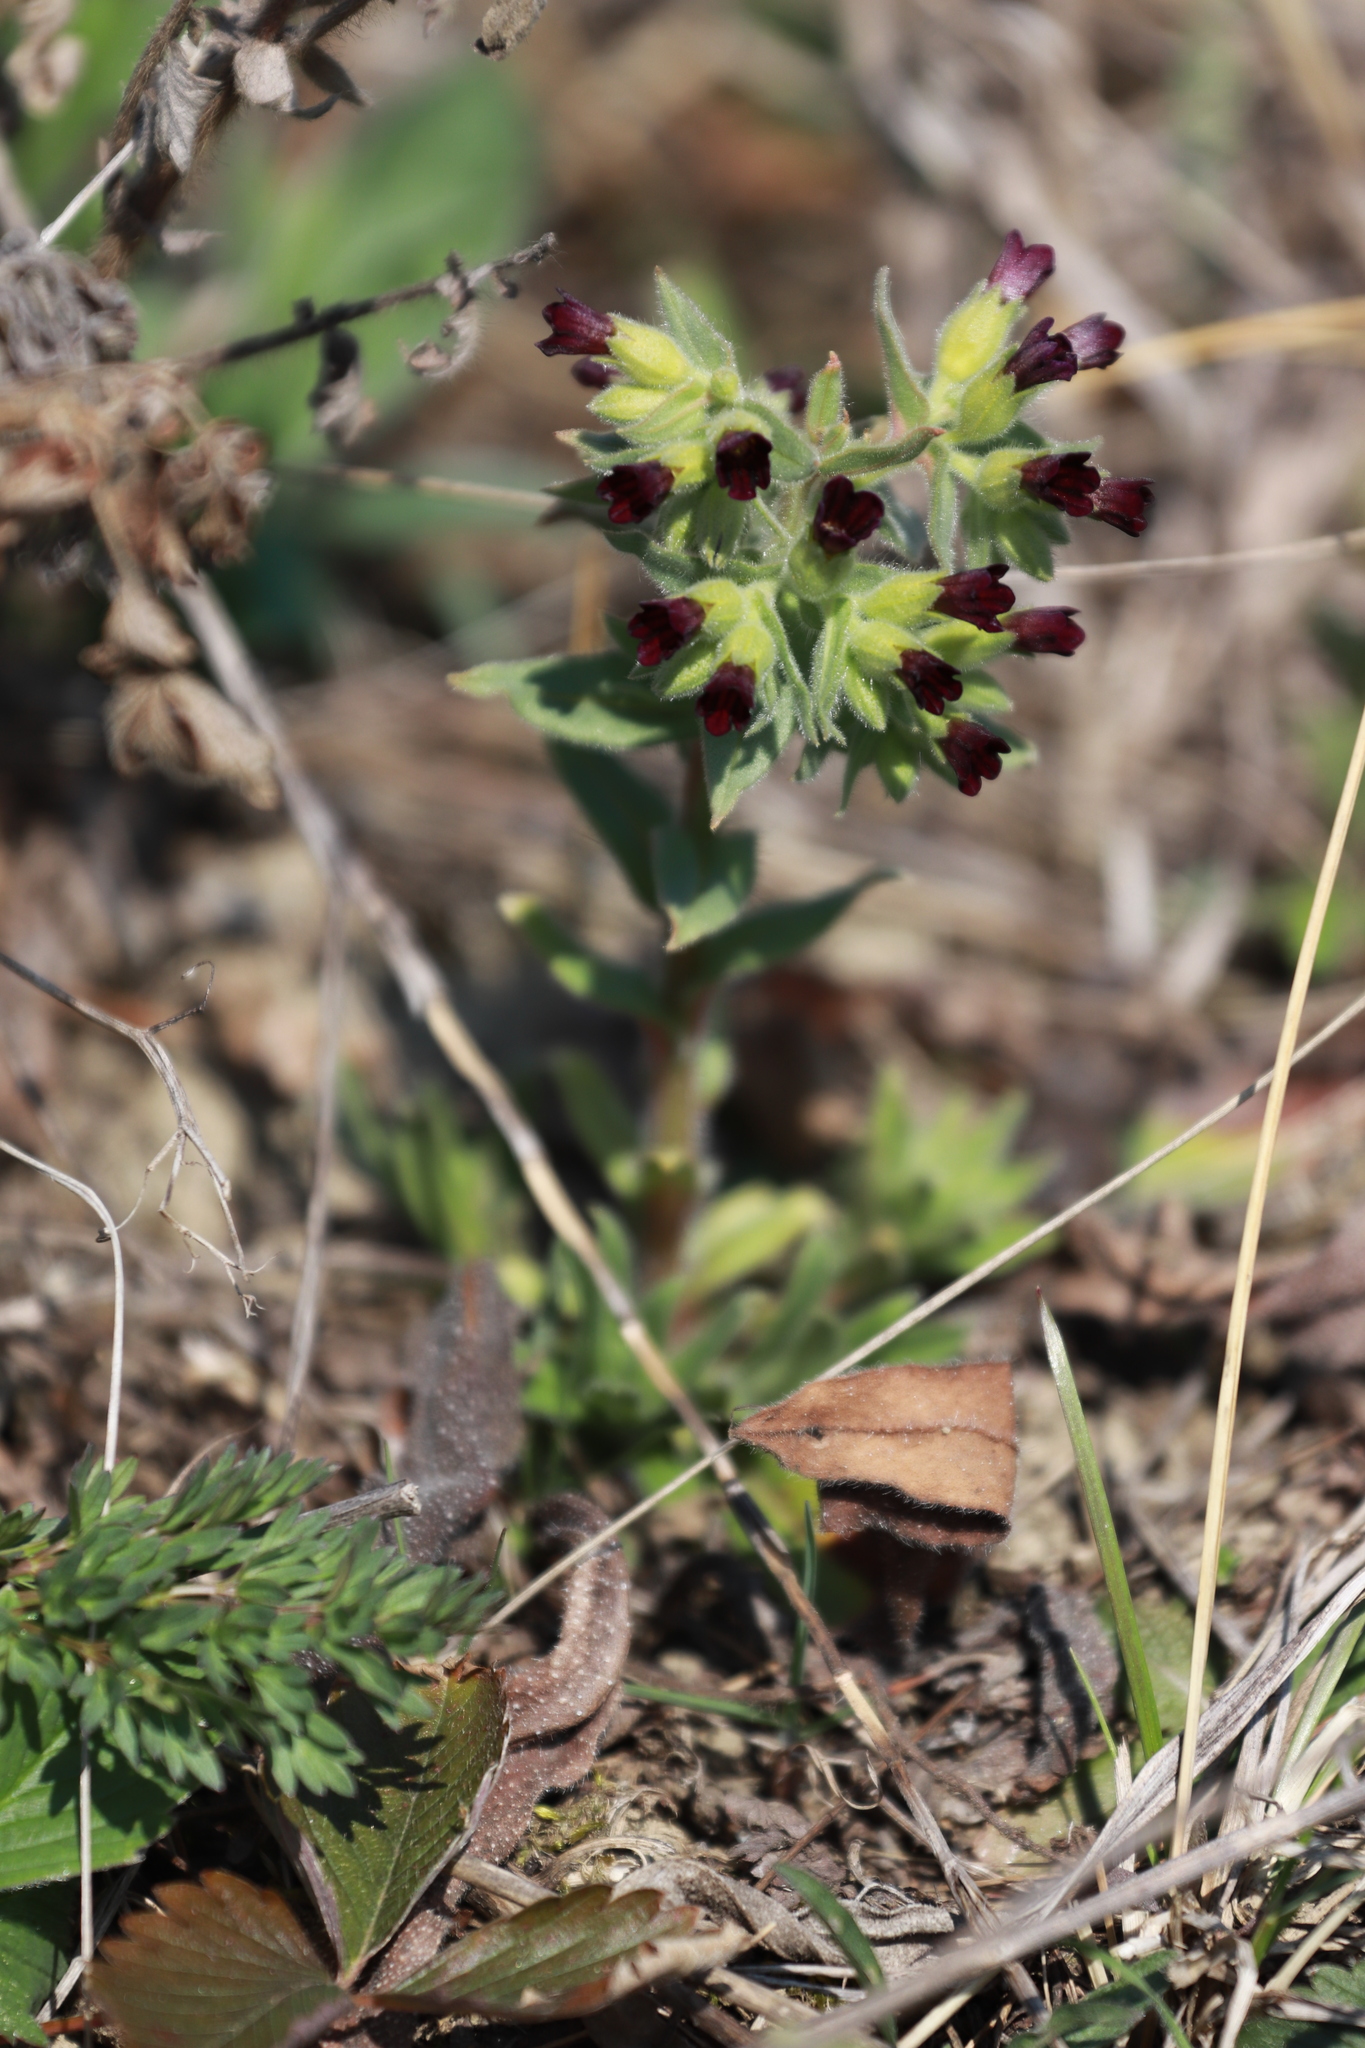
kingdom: Plantae
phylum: Tracheophyta
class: Magnoliopsida
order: Boraginales
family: Boraginaceae
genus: Nonea
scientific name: Nonea pulla
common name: Brown nonea
